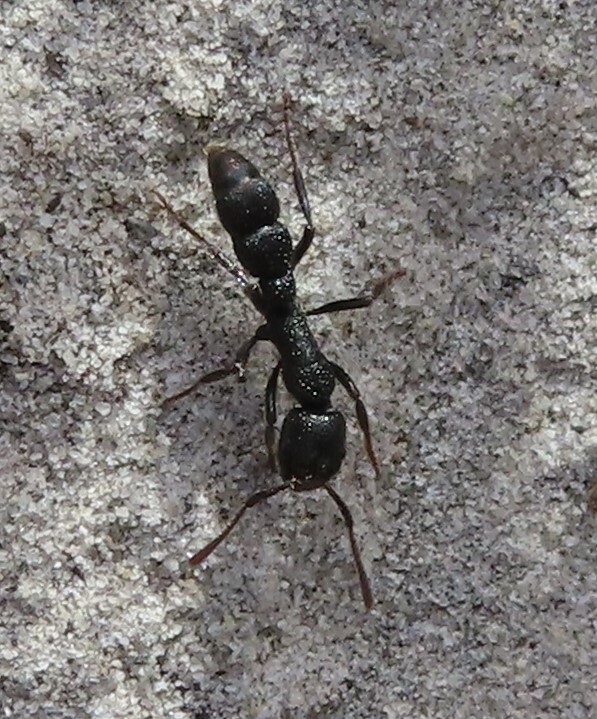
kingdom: Animalia
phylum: Arthropoda
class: Insecta
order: Hymenoptera
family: Formicidae
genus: Plectroctena
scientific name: Plectroctena mandibularis
